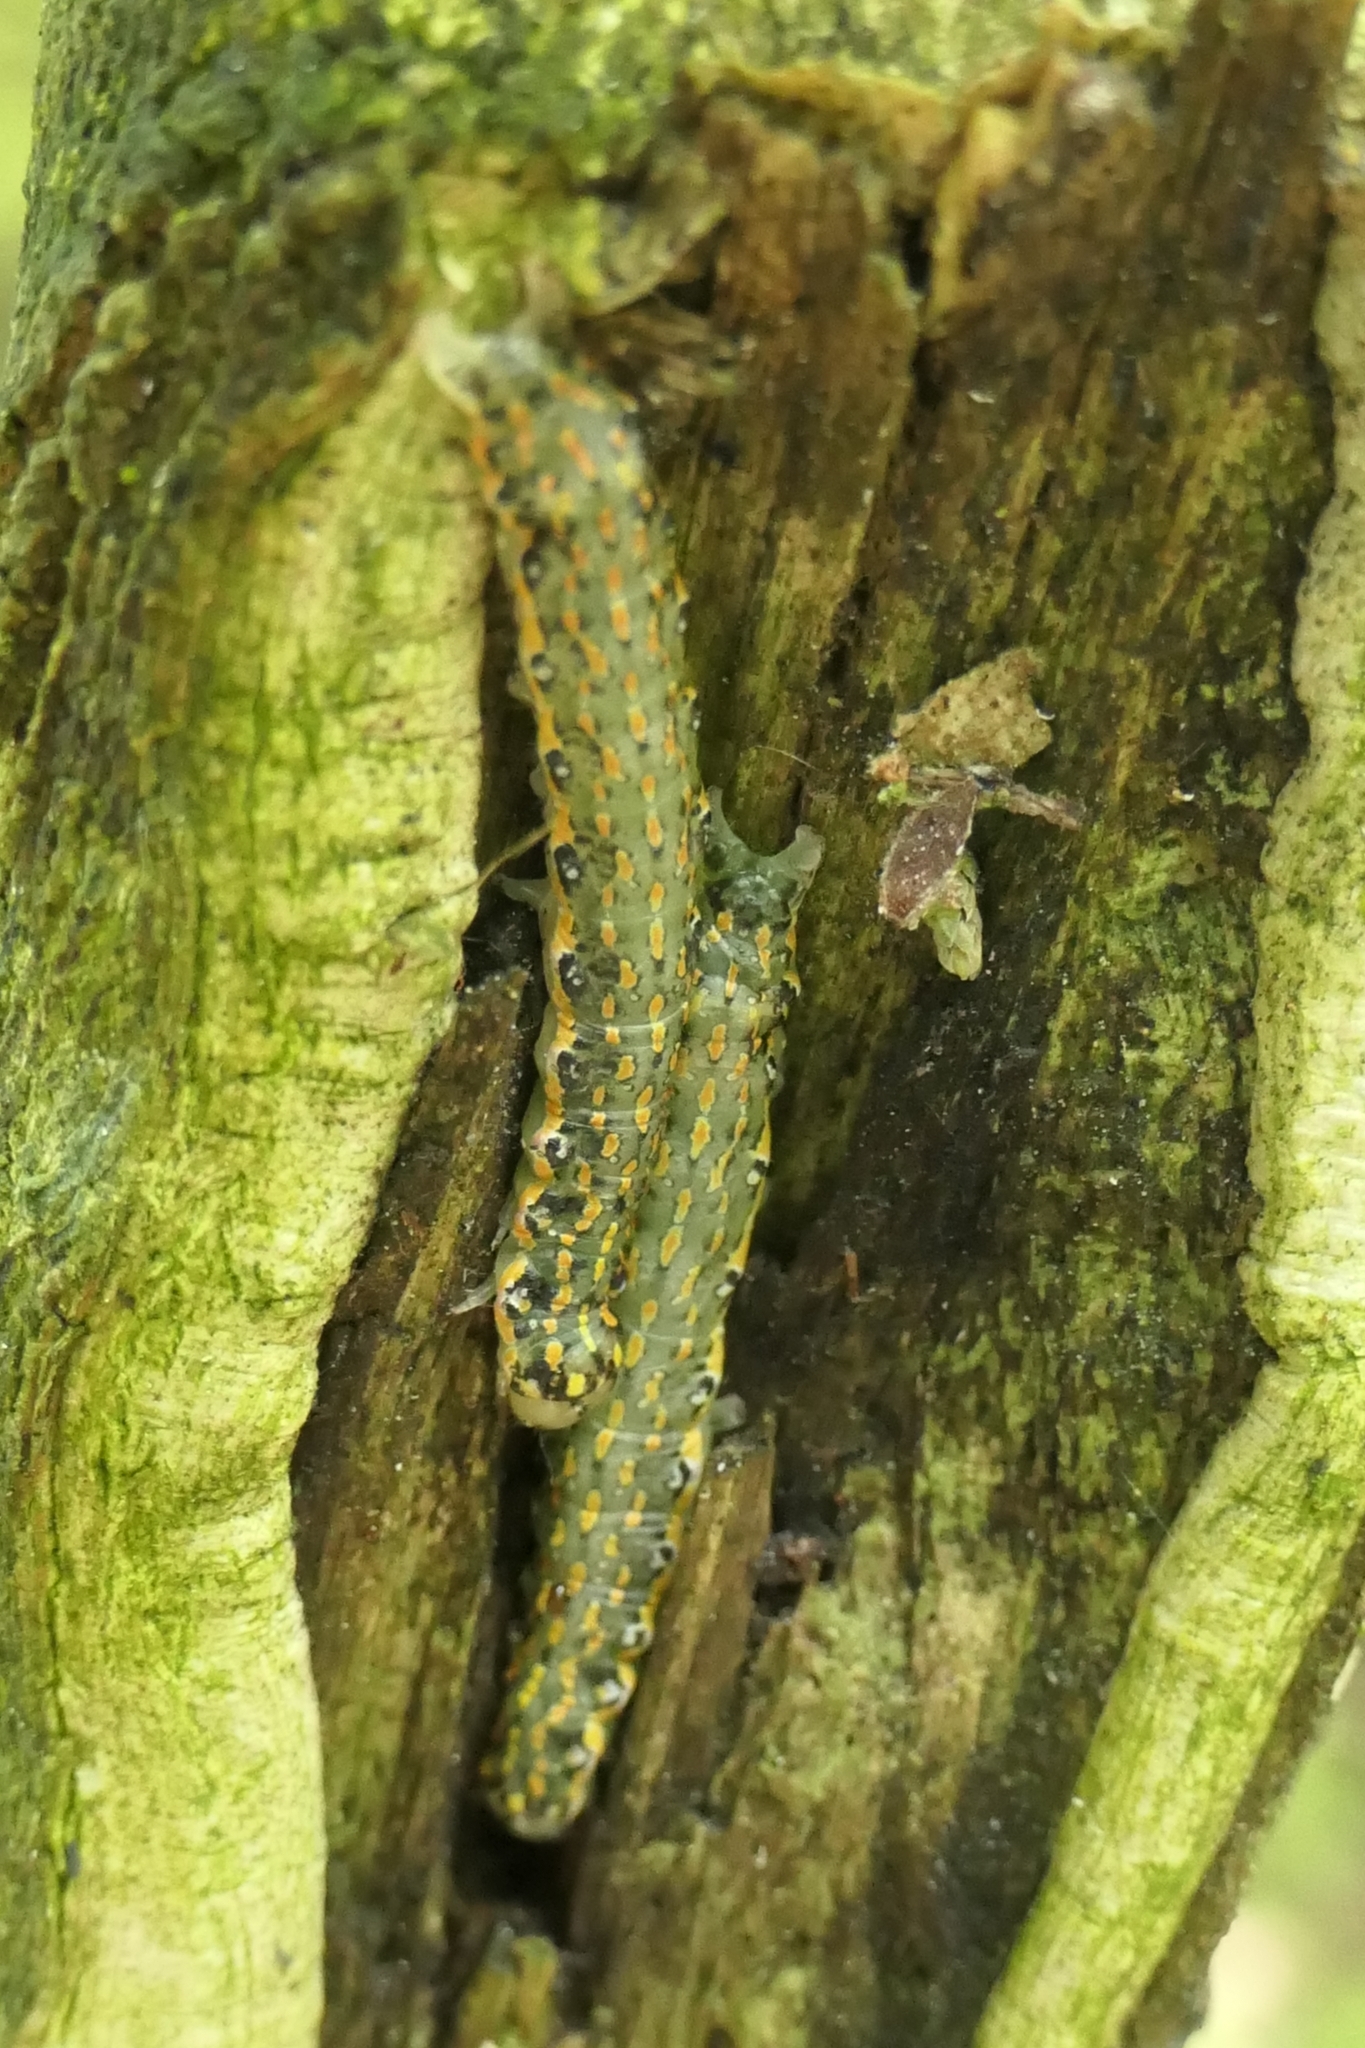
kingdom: Animalia
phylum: Arthropoda
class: Insecta
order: Lepidoptera
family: Noctuidae
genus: Austramathes
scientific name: Austramathes purpurea
